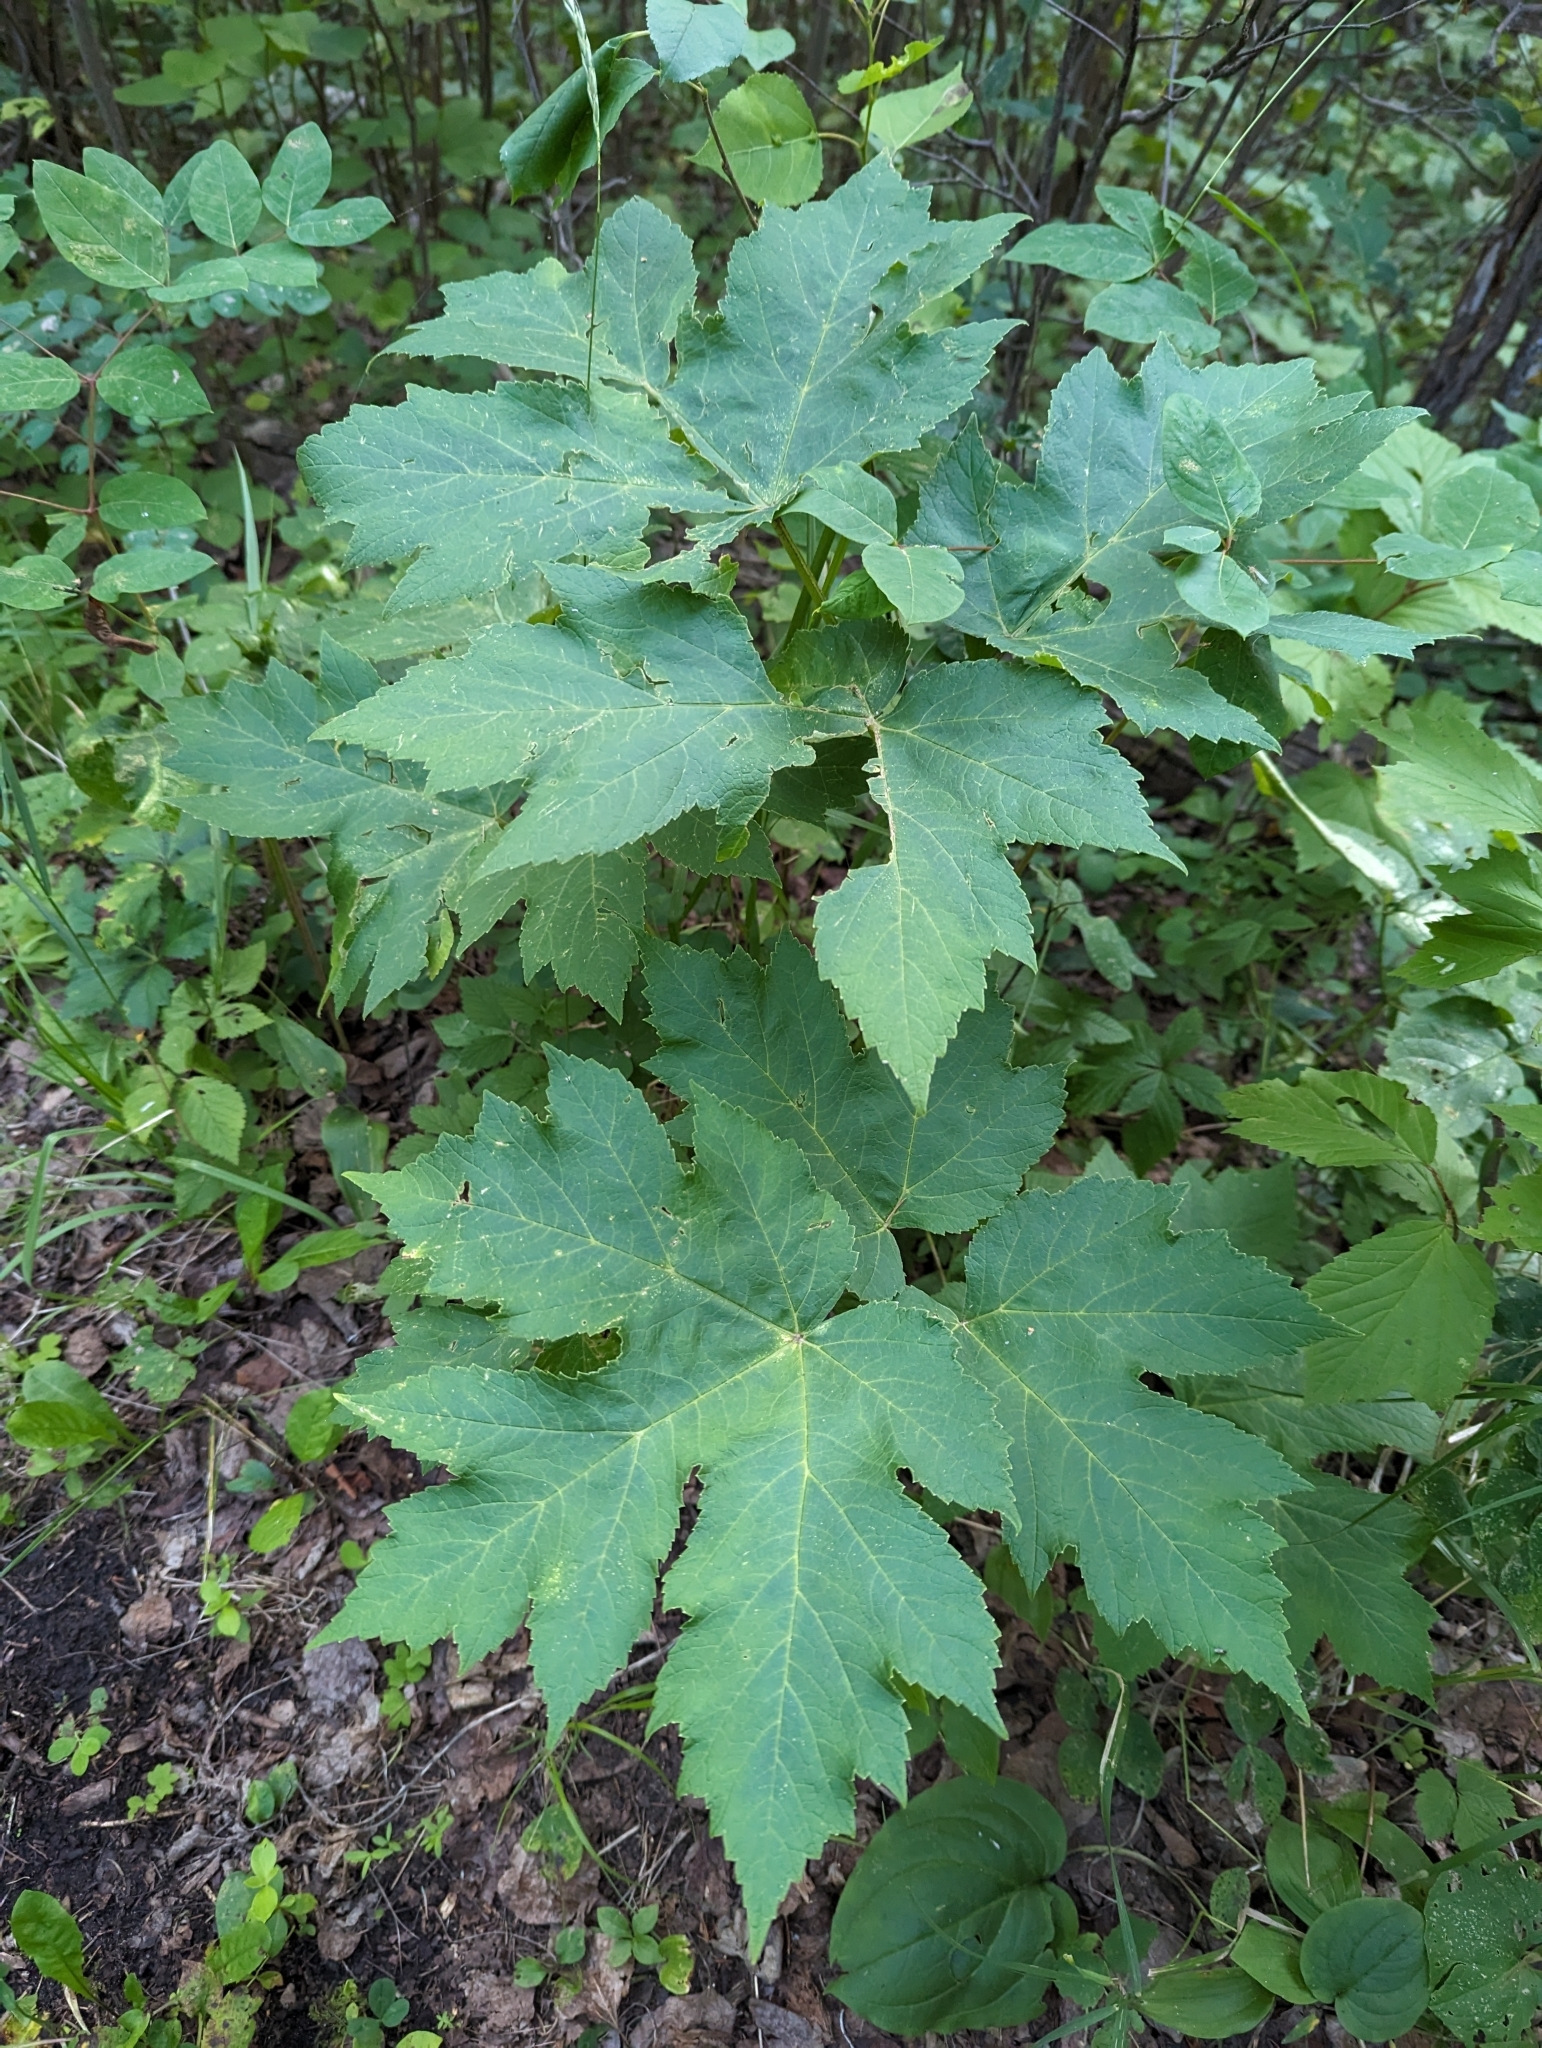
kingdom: Plantae
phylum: Tracheophyta
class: Magnoliopsida
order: Apiales
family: Apiaceae
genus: Heracleum
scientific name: Heracleum maximum
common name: American cow parsnip
